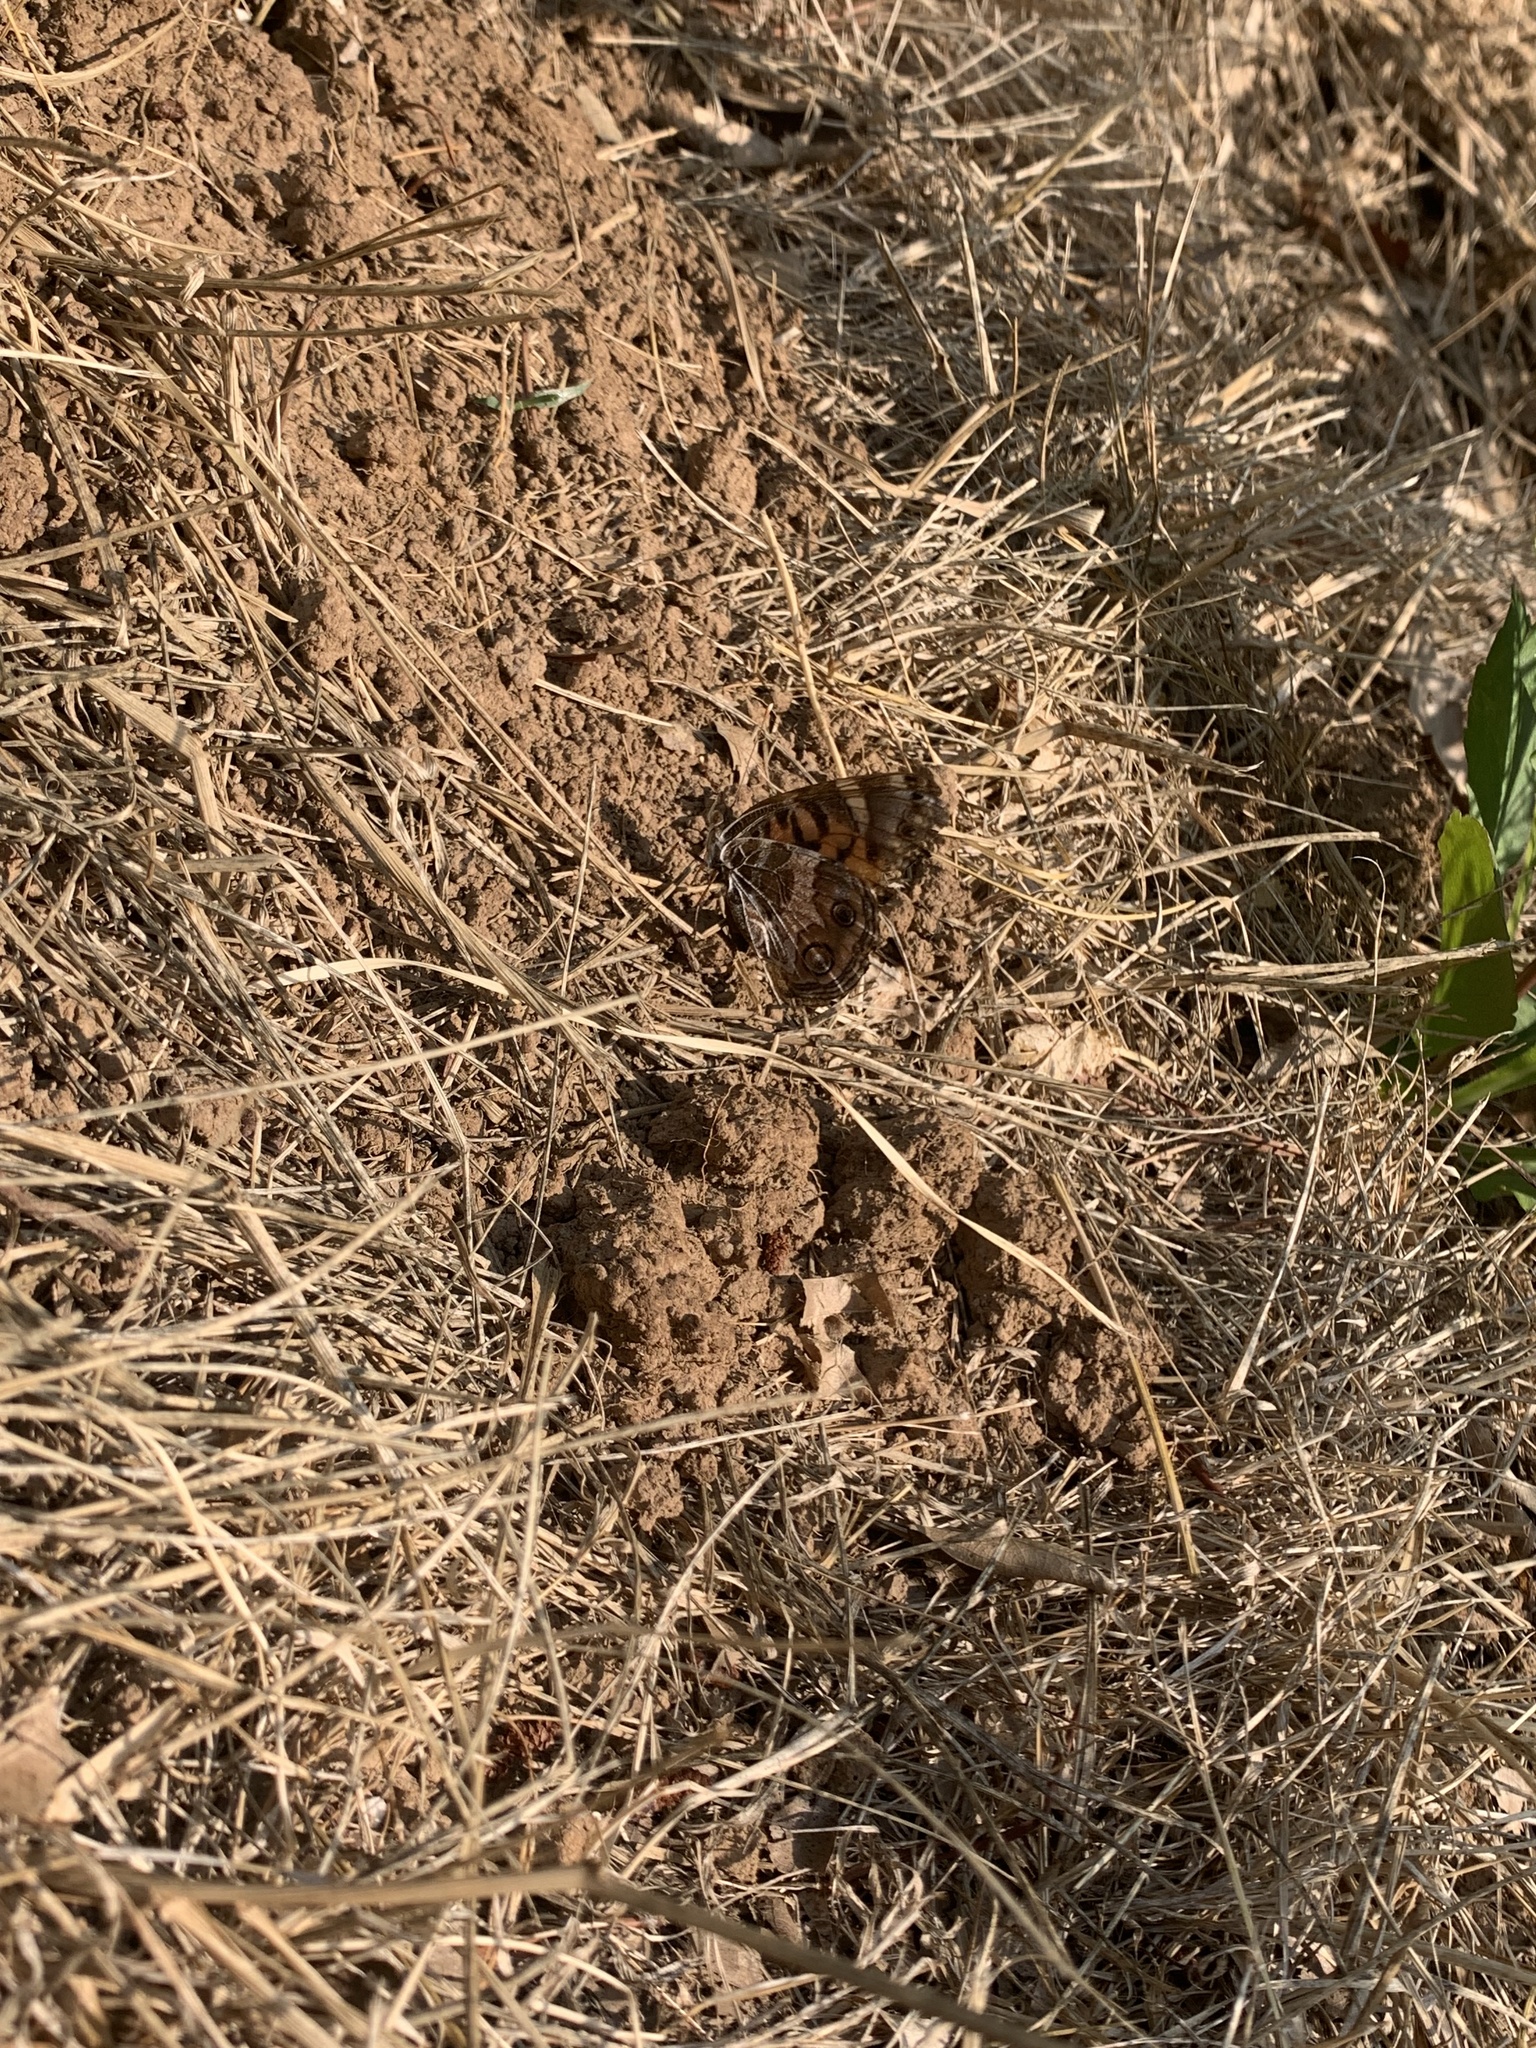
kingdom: Animalia
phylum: Arthropoda
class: Insecta
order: Lepidoptera
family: Nymphalidae
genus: Vanessa
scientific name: Vanessa virginiensis
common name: American lady
